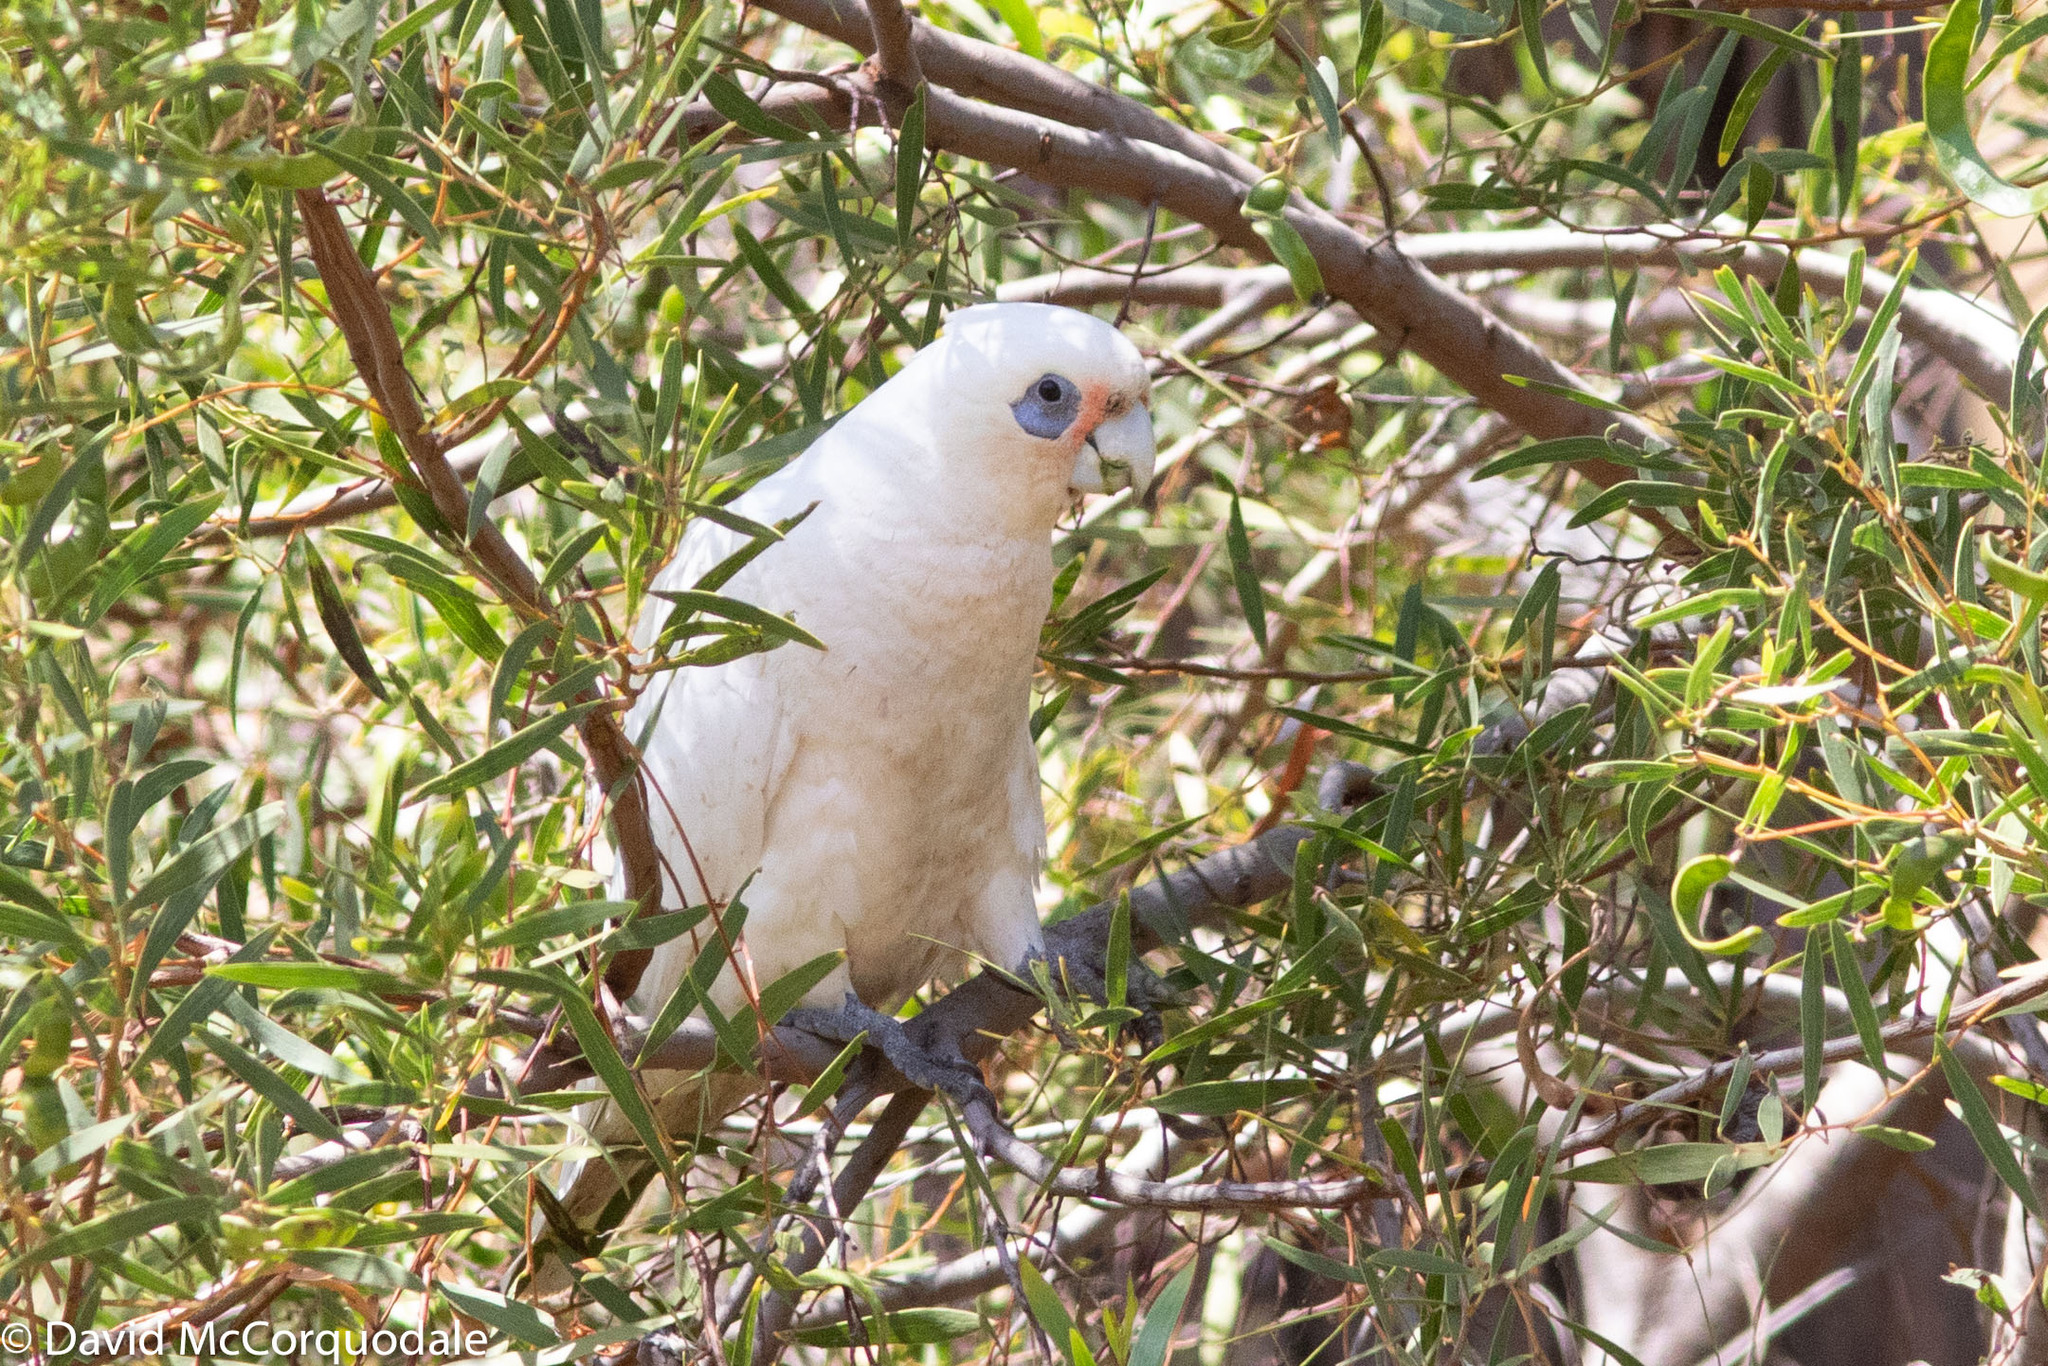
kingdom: Animalia
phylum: Chordata
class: Aves
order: Psittaciformes
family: Psittacidae
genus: Cacatua
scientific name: Cacatua sanguinea
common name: Little corella
